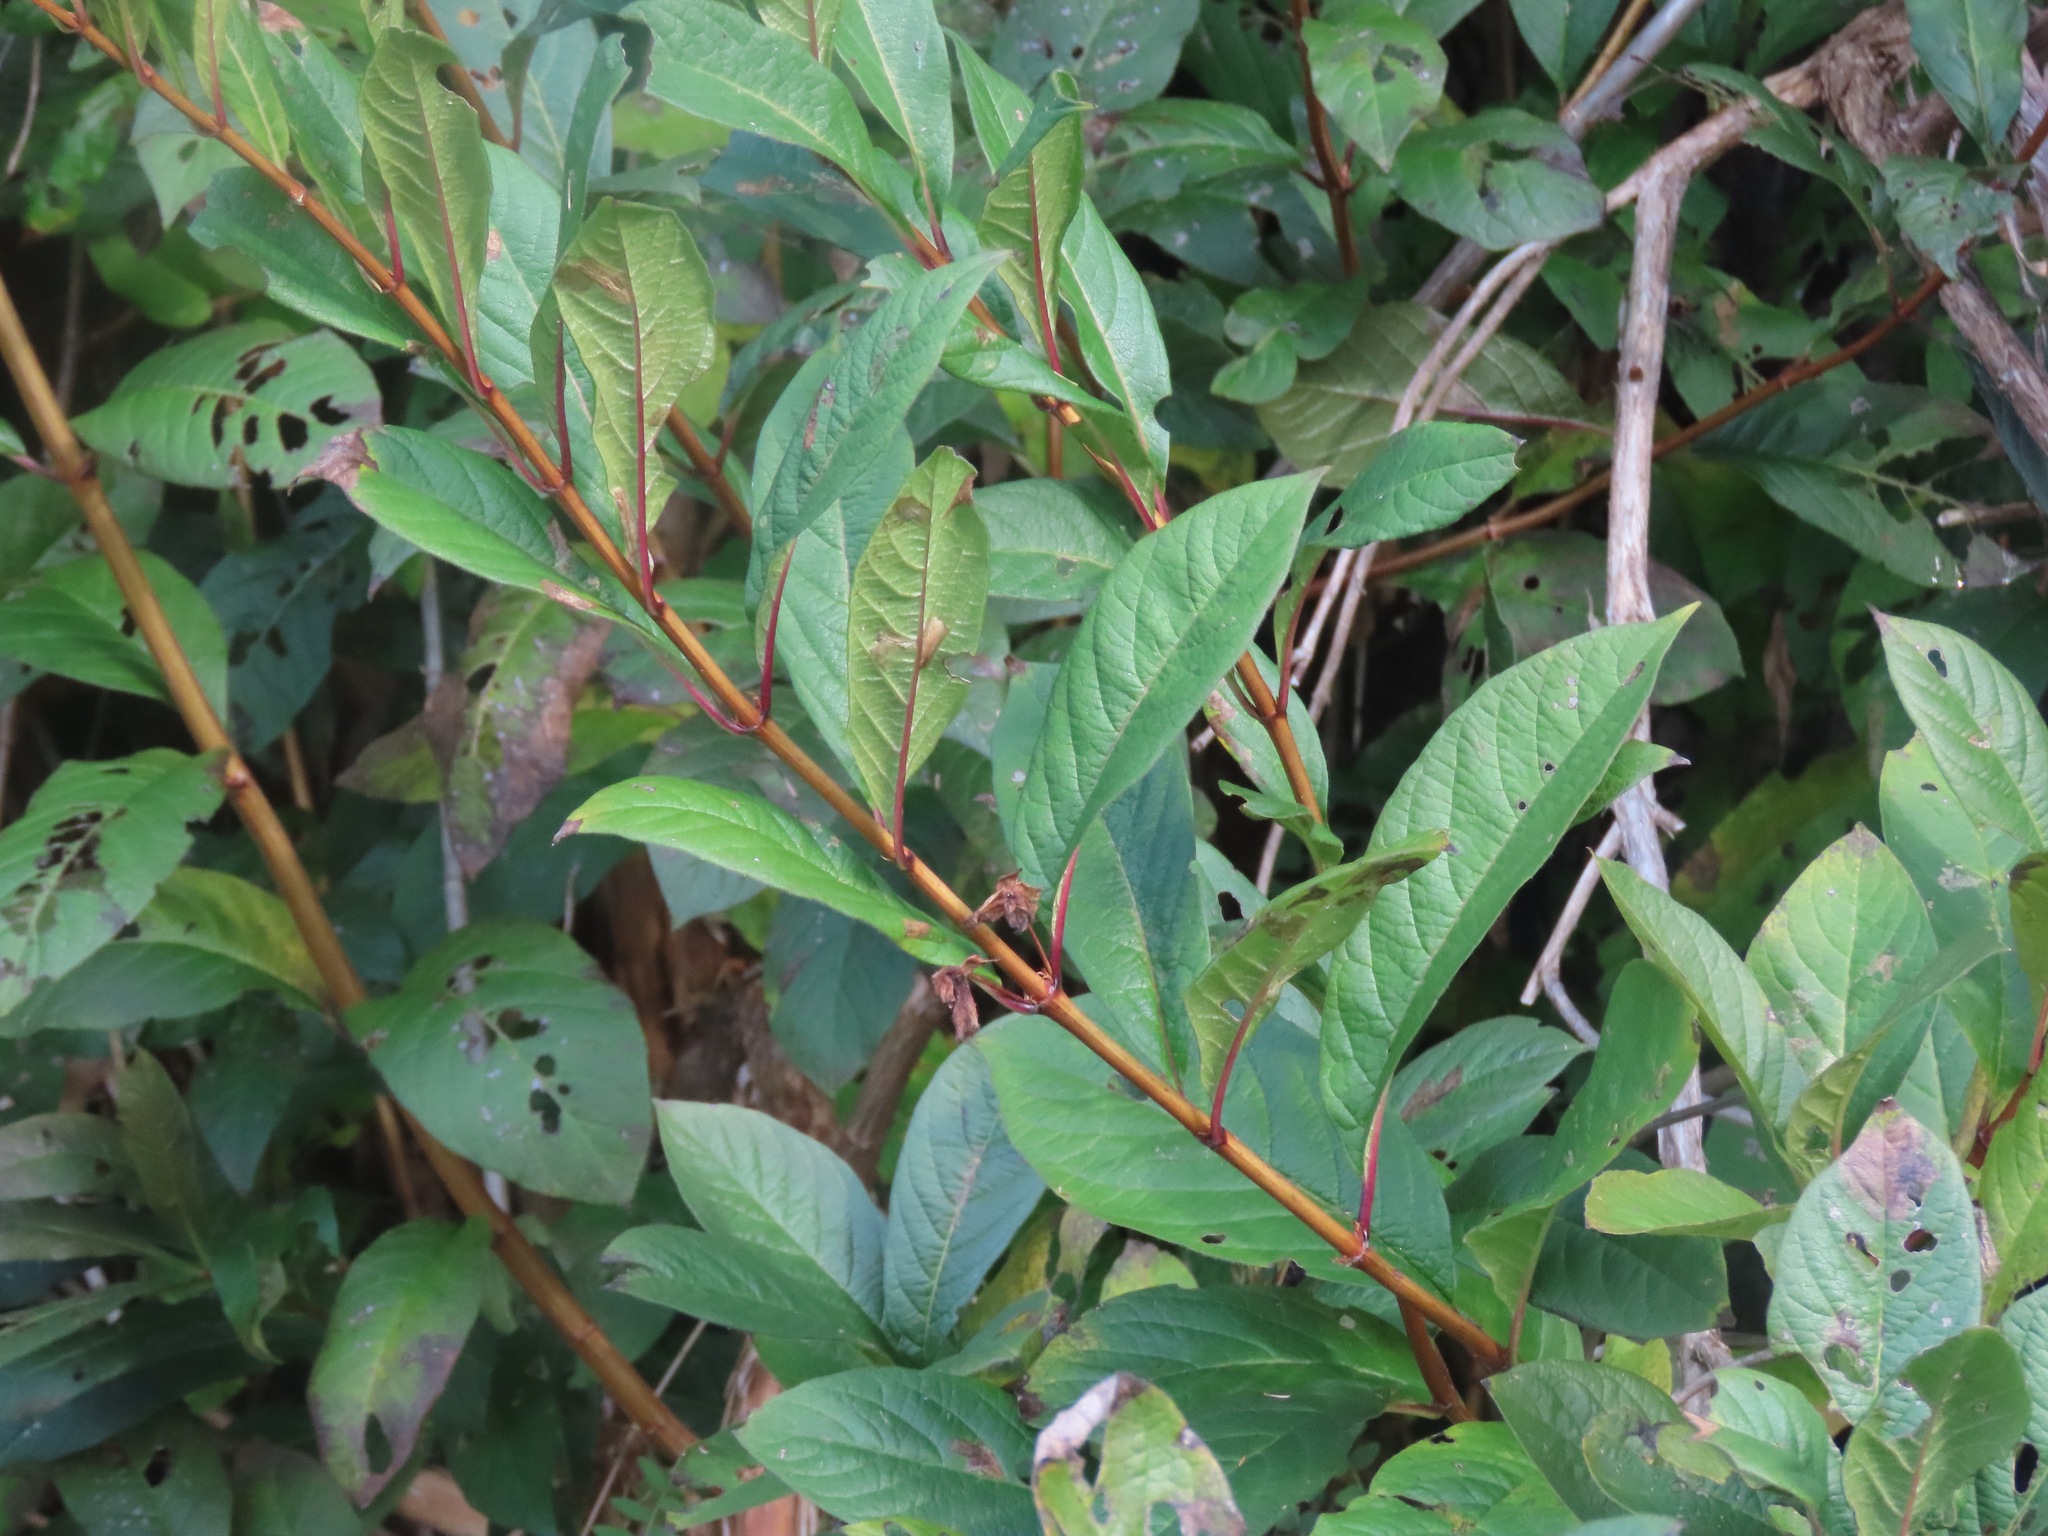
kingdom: Plantae
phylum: Tracheophyta
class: Magnoliopsida
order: Dipsacales
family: Caprifoliaceae
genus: Lonicera
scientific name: Lonicera involucrata
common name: Californian honeysuckle
